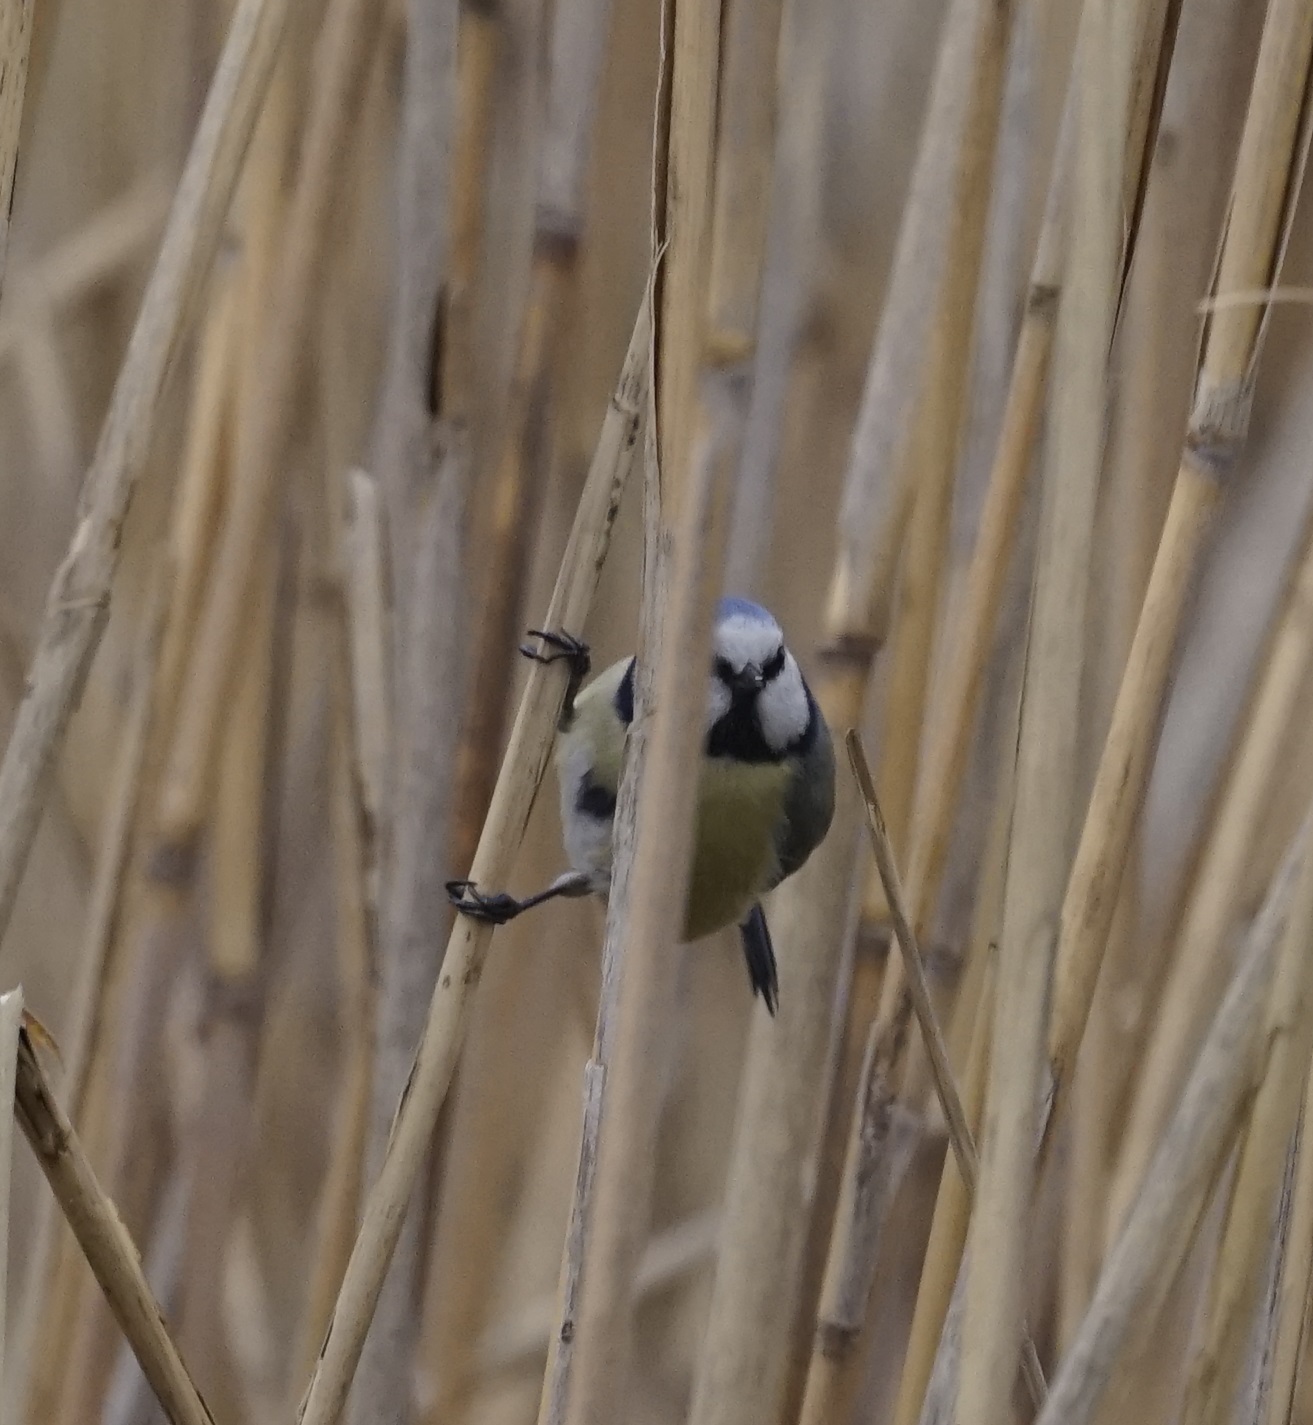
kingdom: Animalia
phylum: Chordata
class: Aves
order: Passeriformes
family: Paridae
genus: Cyanistes
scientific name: Cyanistes caeruleus
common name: Eurasian blue tit
